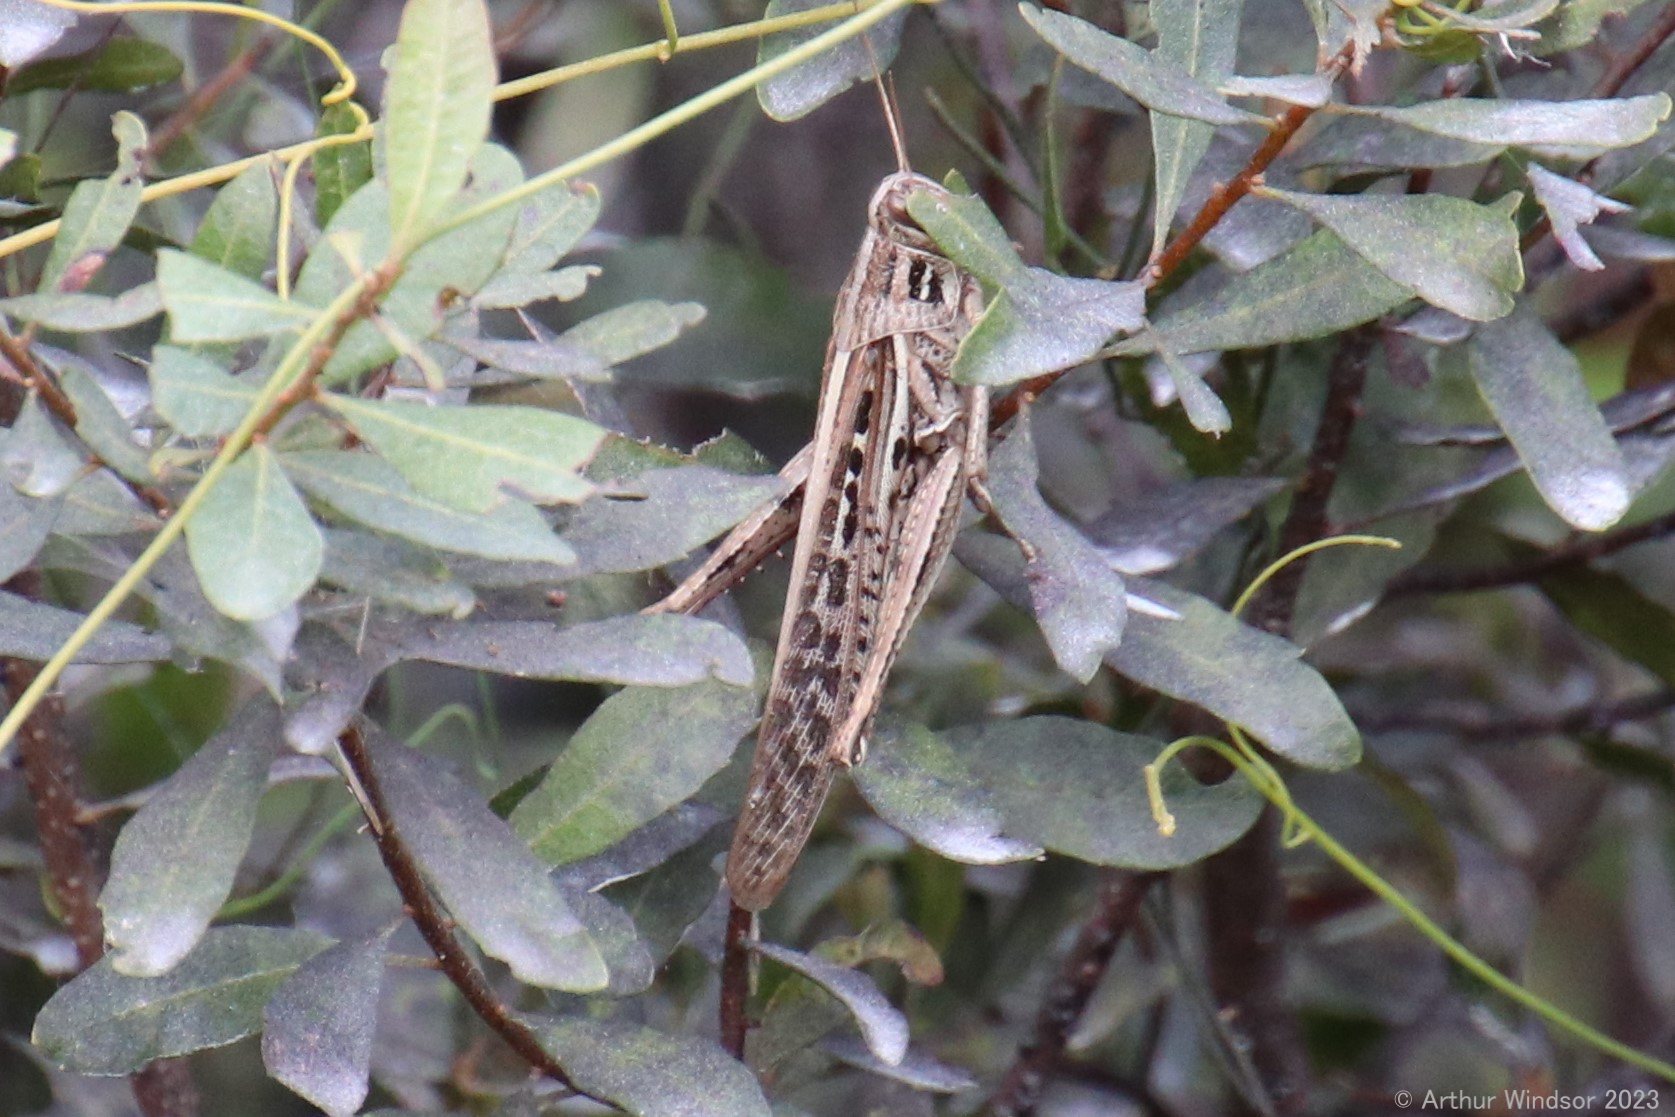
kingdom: Animalia
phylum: Arthropoda
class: Insecta
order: Orthoptera
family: Acrididae
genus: Schistocerca
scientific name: Schistocerca serialis
